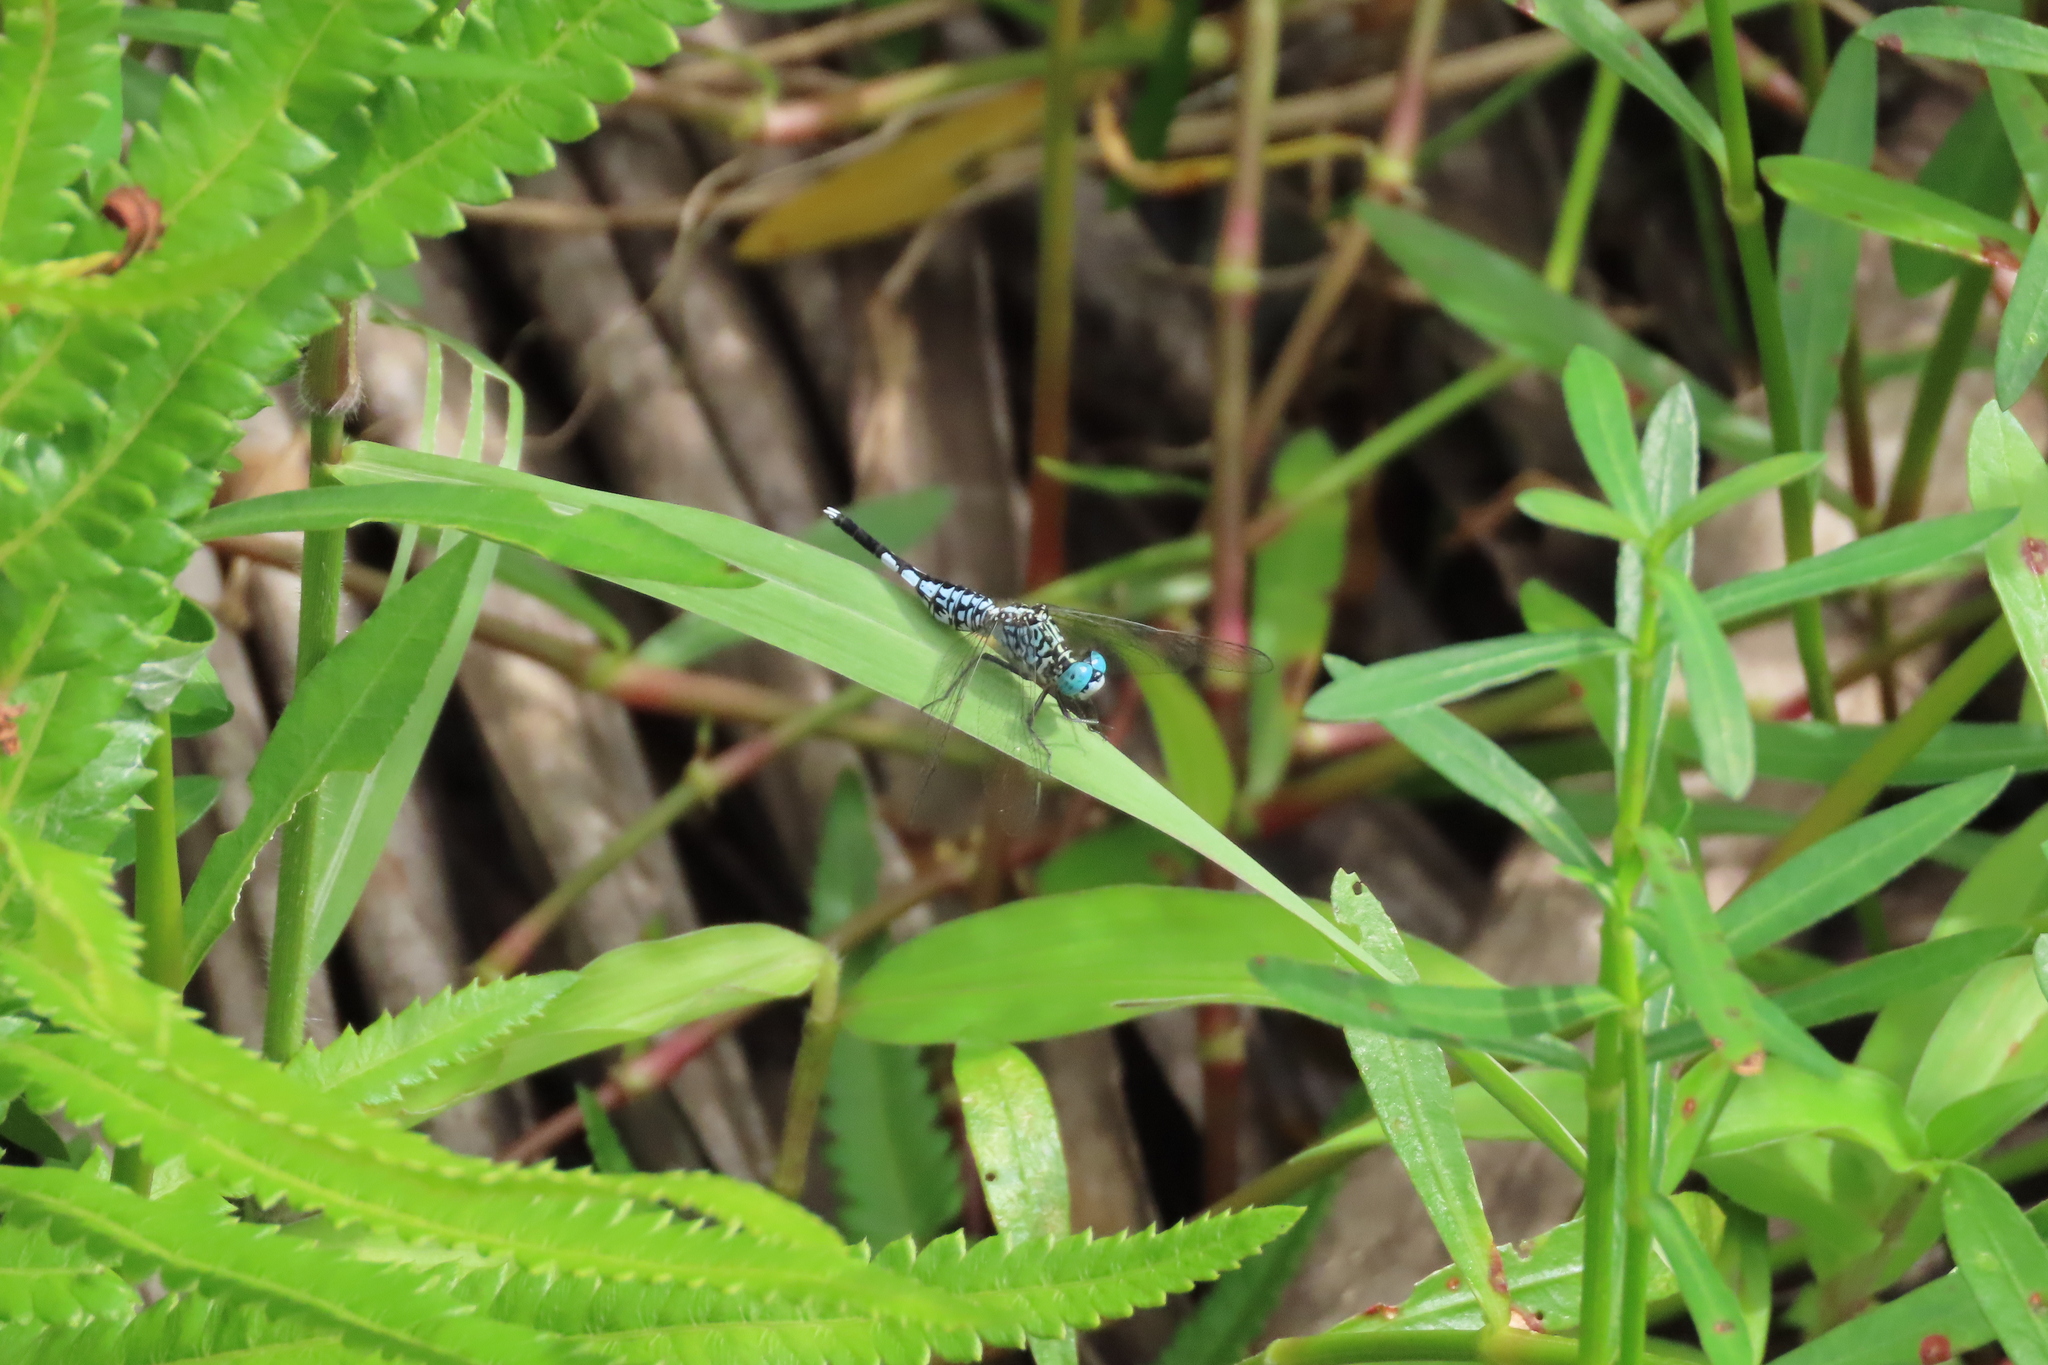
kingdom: Animalia
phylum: Arthropoda
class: Insecta
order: Odonata
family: Libellulidae
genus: Acisoma
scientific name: Acisoma panorpoides
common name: Asian pintail
